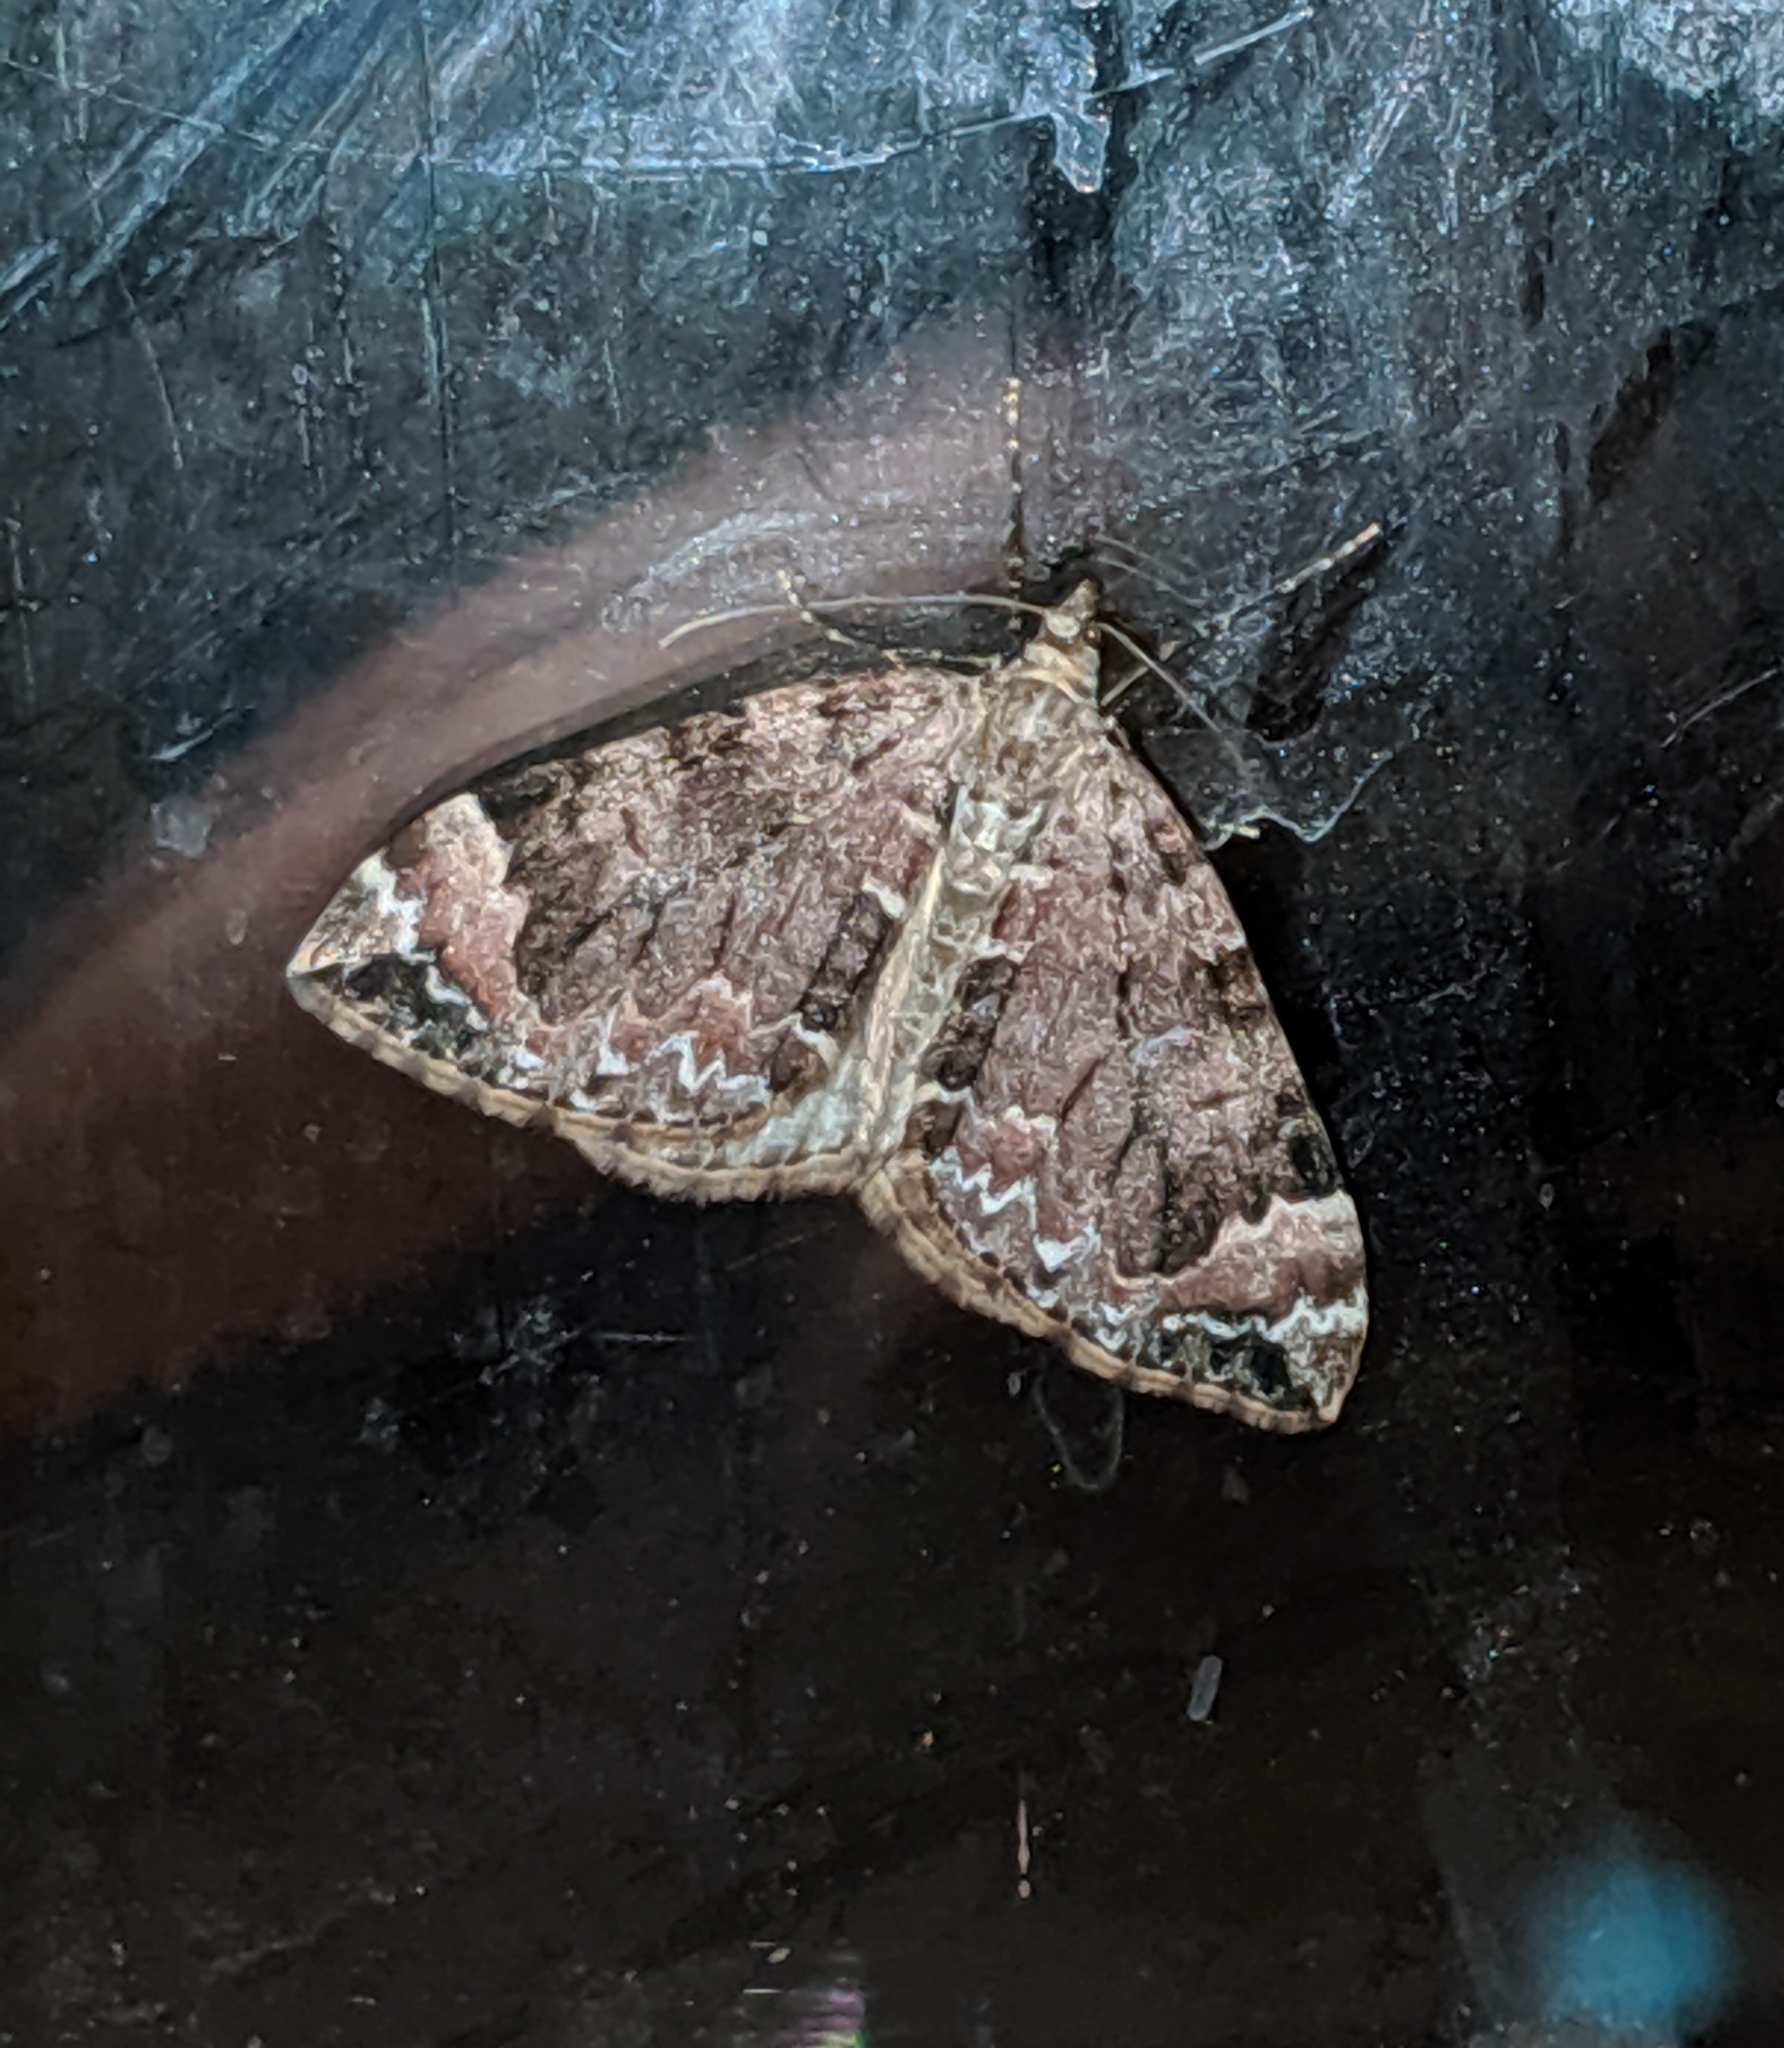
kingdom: Animalia
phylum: Arthropoda
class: Insecta
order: Lepidoptera
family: Geometridae
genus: Dysstroma
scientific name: Dysstroma citrata
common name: Dark marbled carpet
